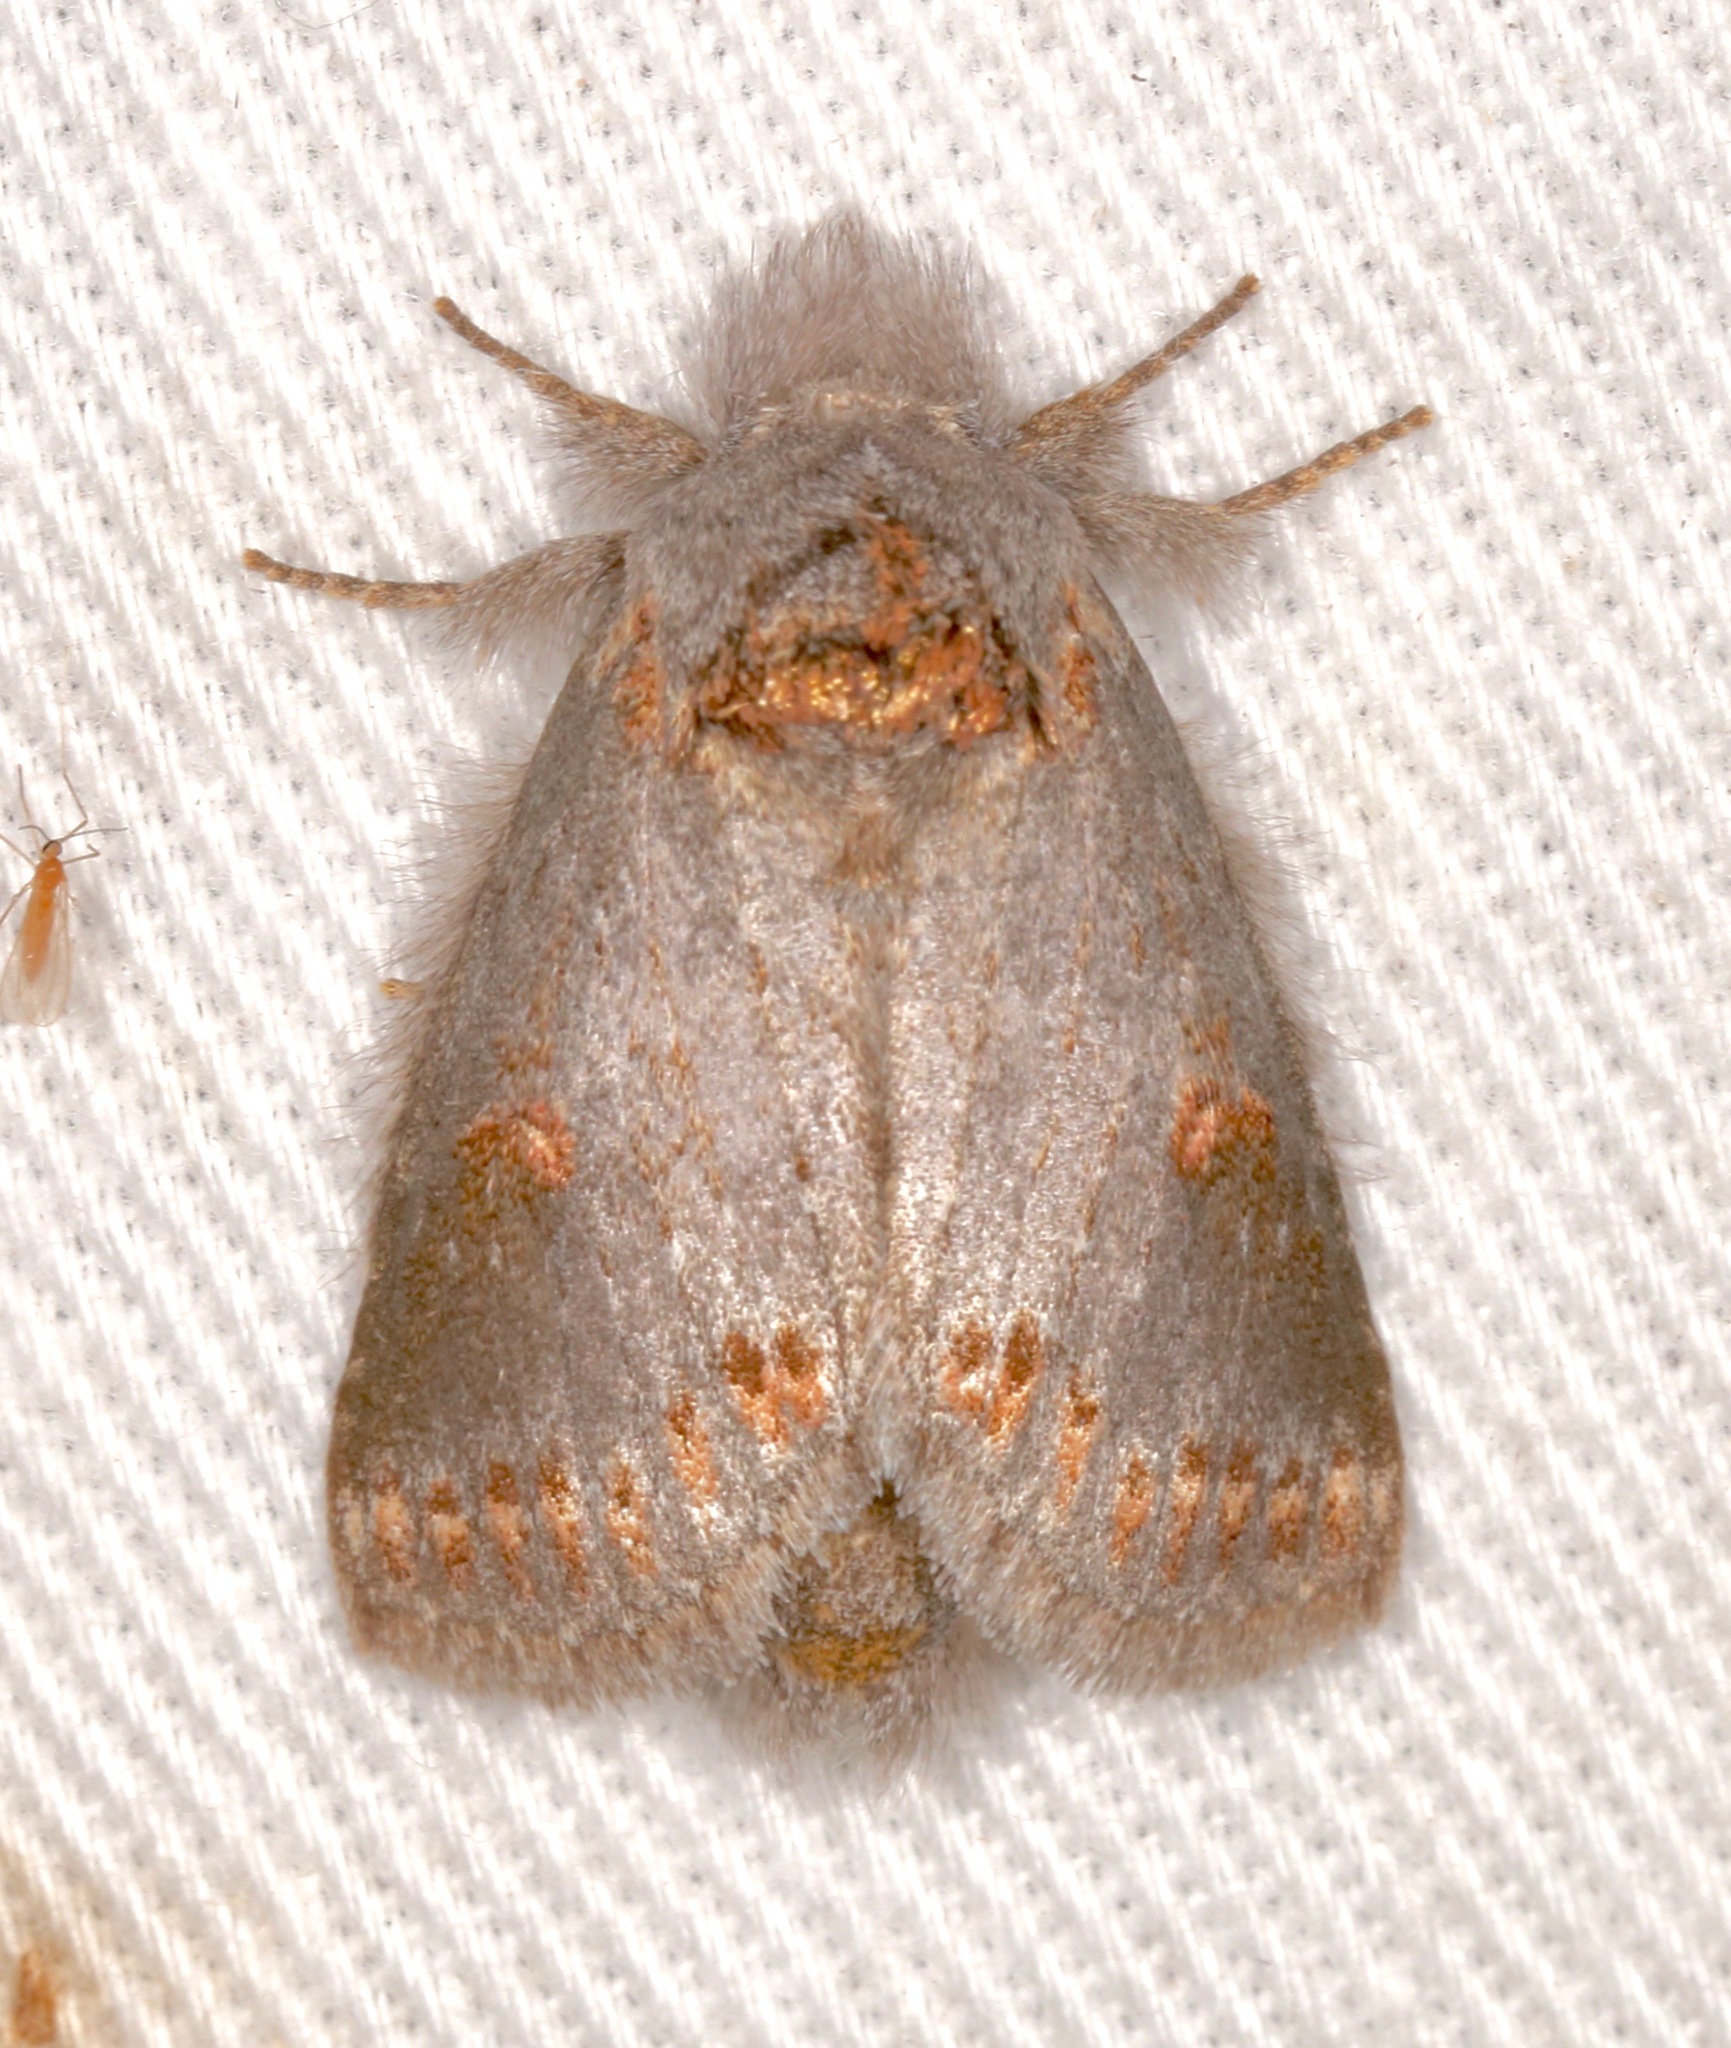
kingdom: Animalia
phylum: Arthropoda
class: Insecta
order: Lepidoptera
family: Notodontidae
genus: Theroa
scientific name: Theroa zethus
